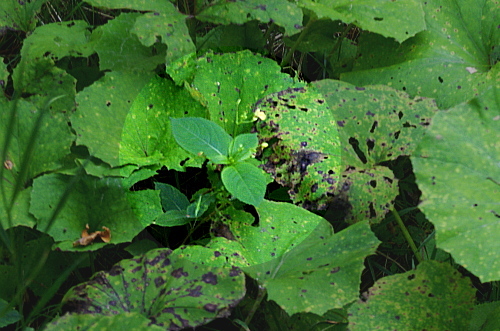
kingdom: Plantae
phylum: Tracheophyta
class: Magnoliopsida
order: Ericales
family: Balsaminaceae
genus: Impatiens
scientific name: Impatiens parviflora
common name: Small balsam
